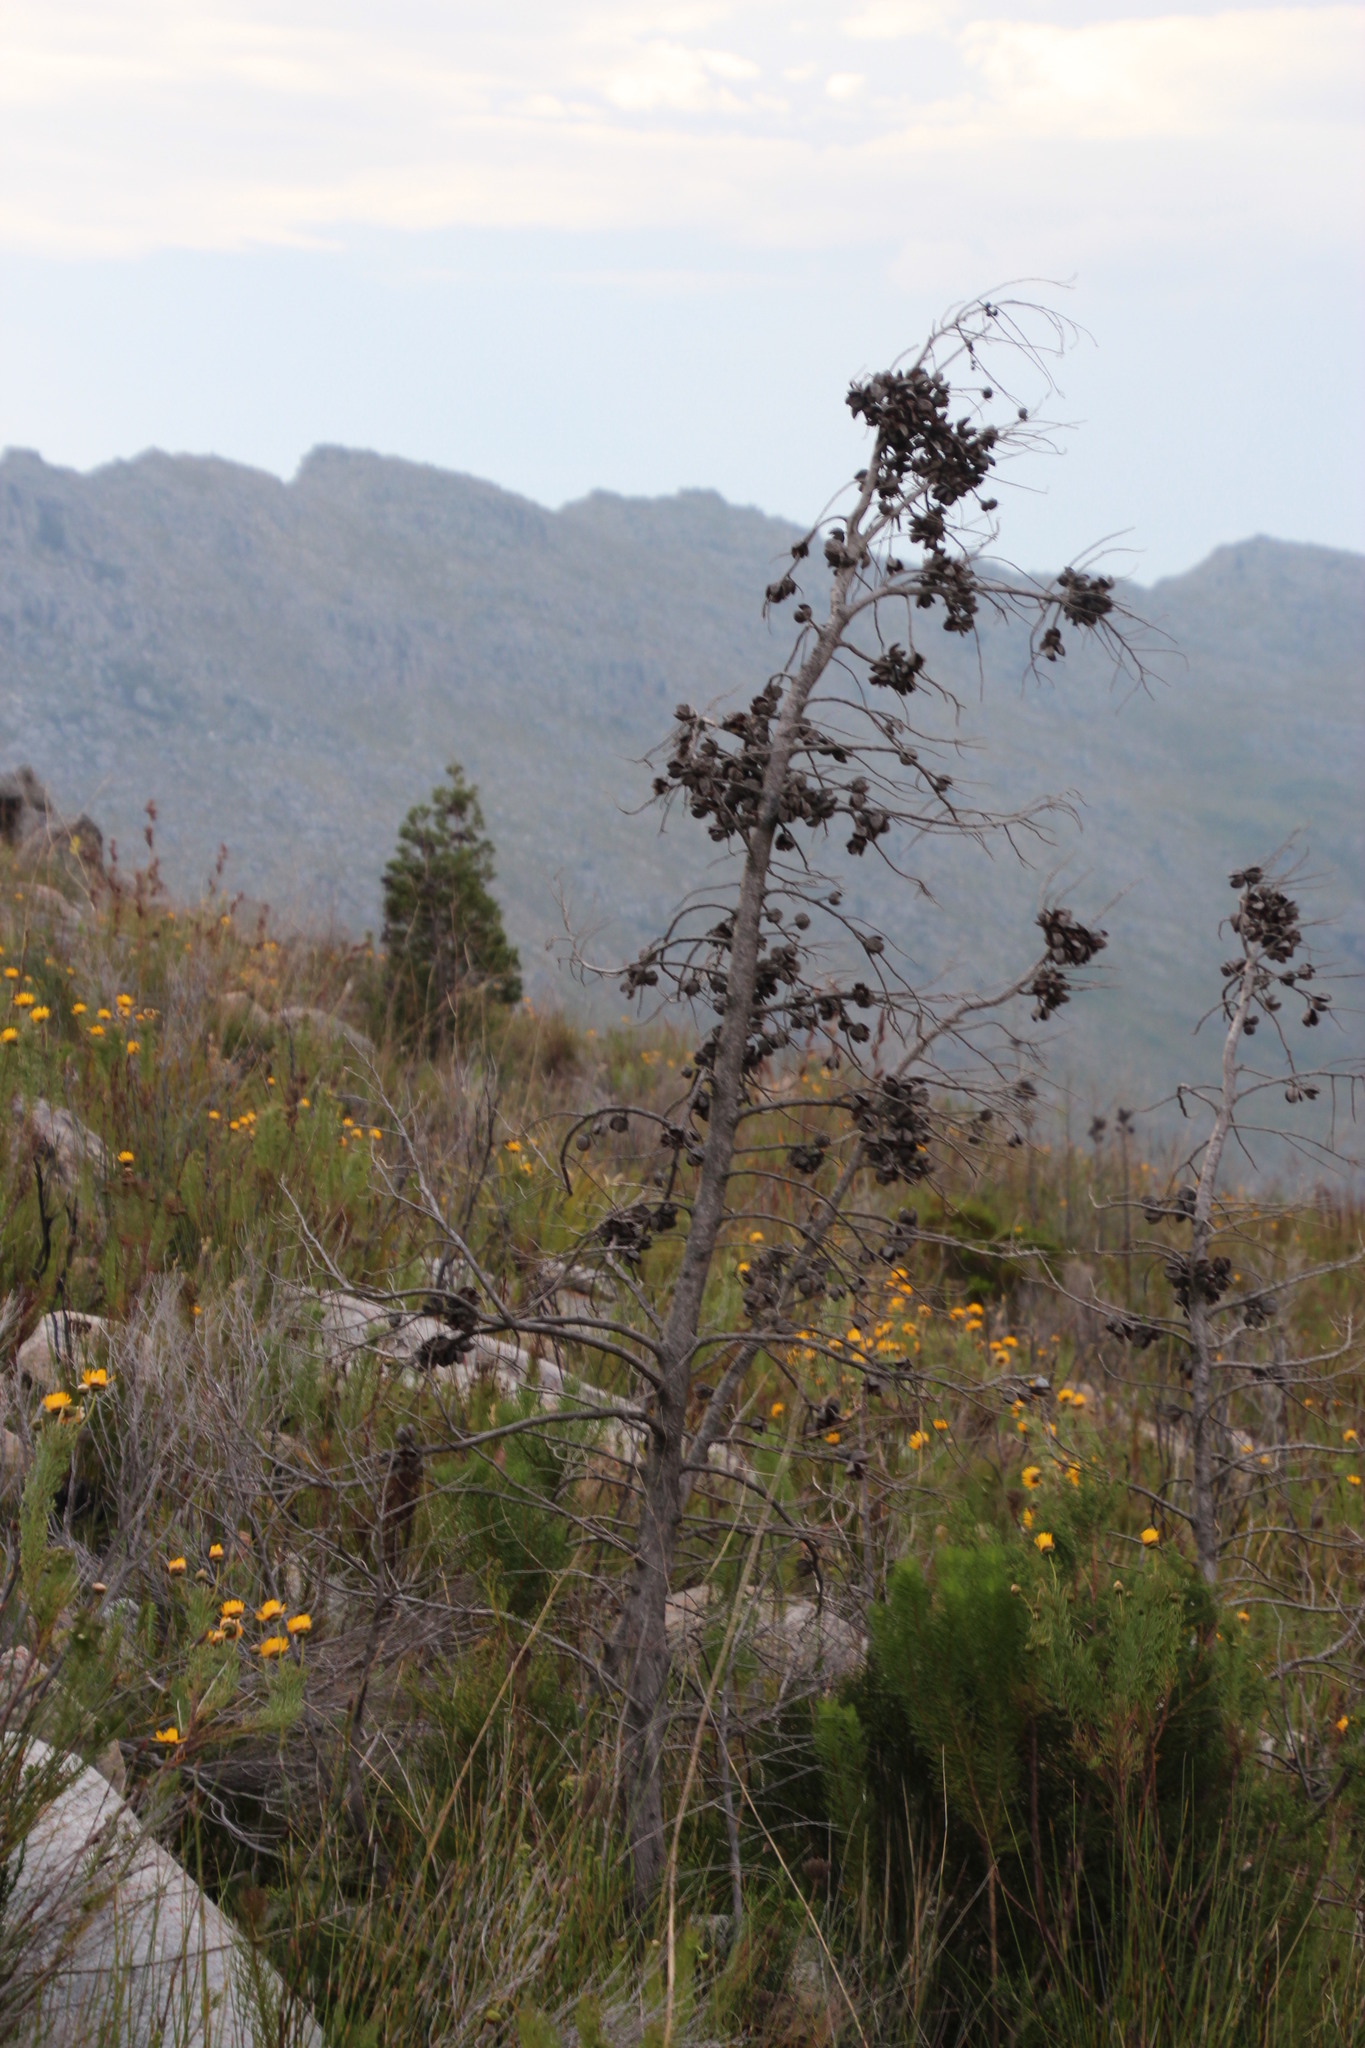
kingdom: Plantae
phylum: Tracheophyta
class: Pinopsida
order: Pinales
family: Cupressaceae
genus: Widdringtonia
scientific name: Widdringtonia nodiflora
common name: Cape cypress
